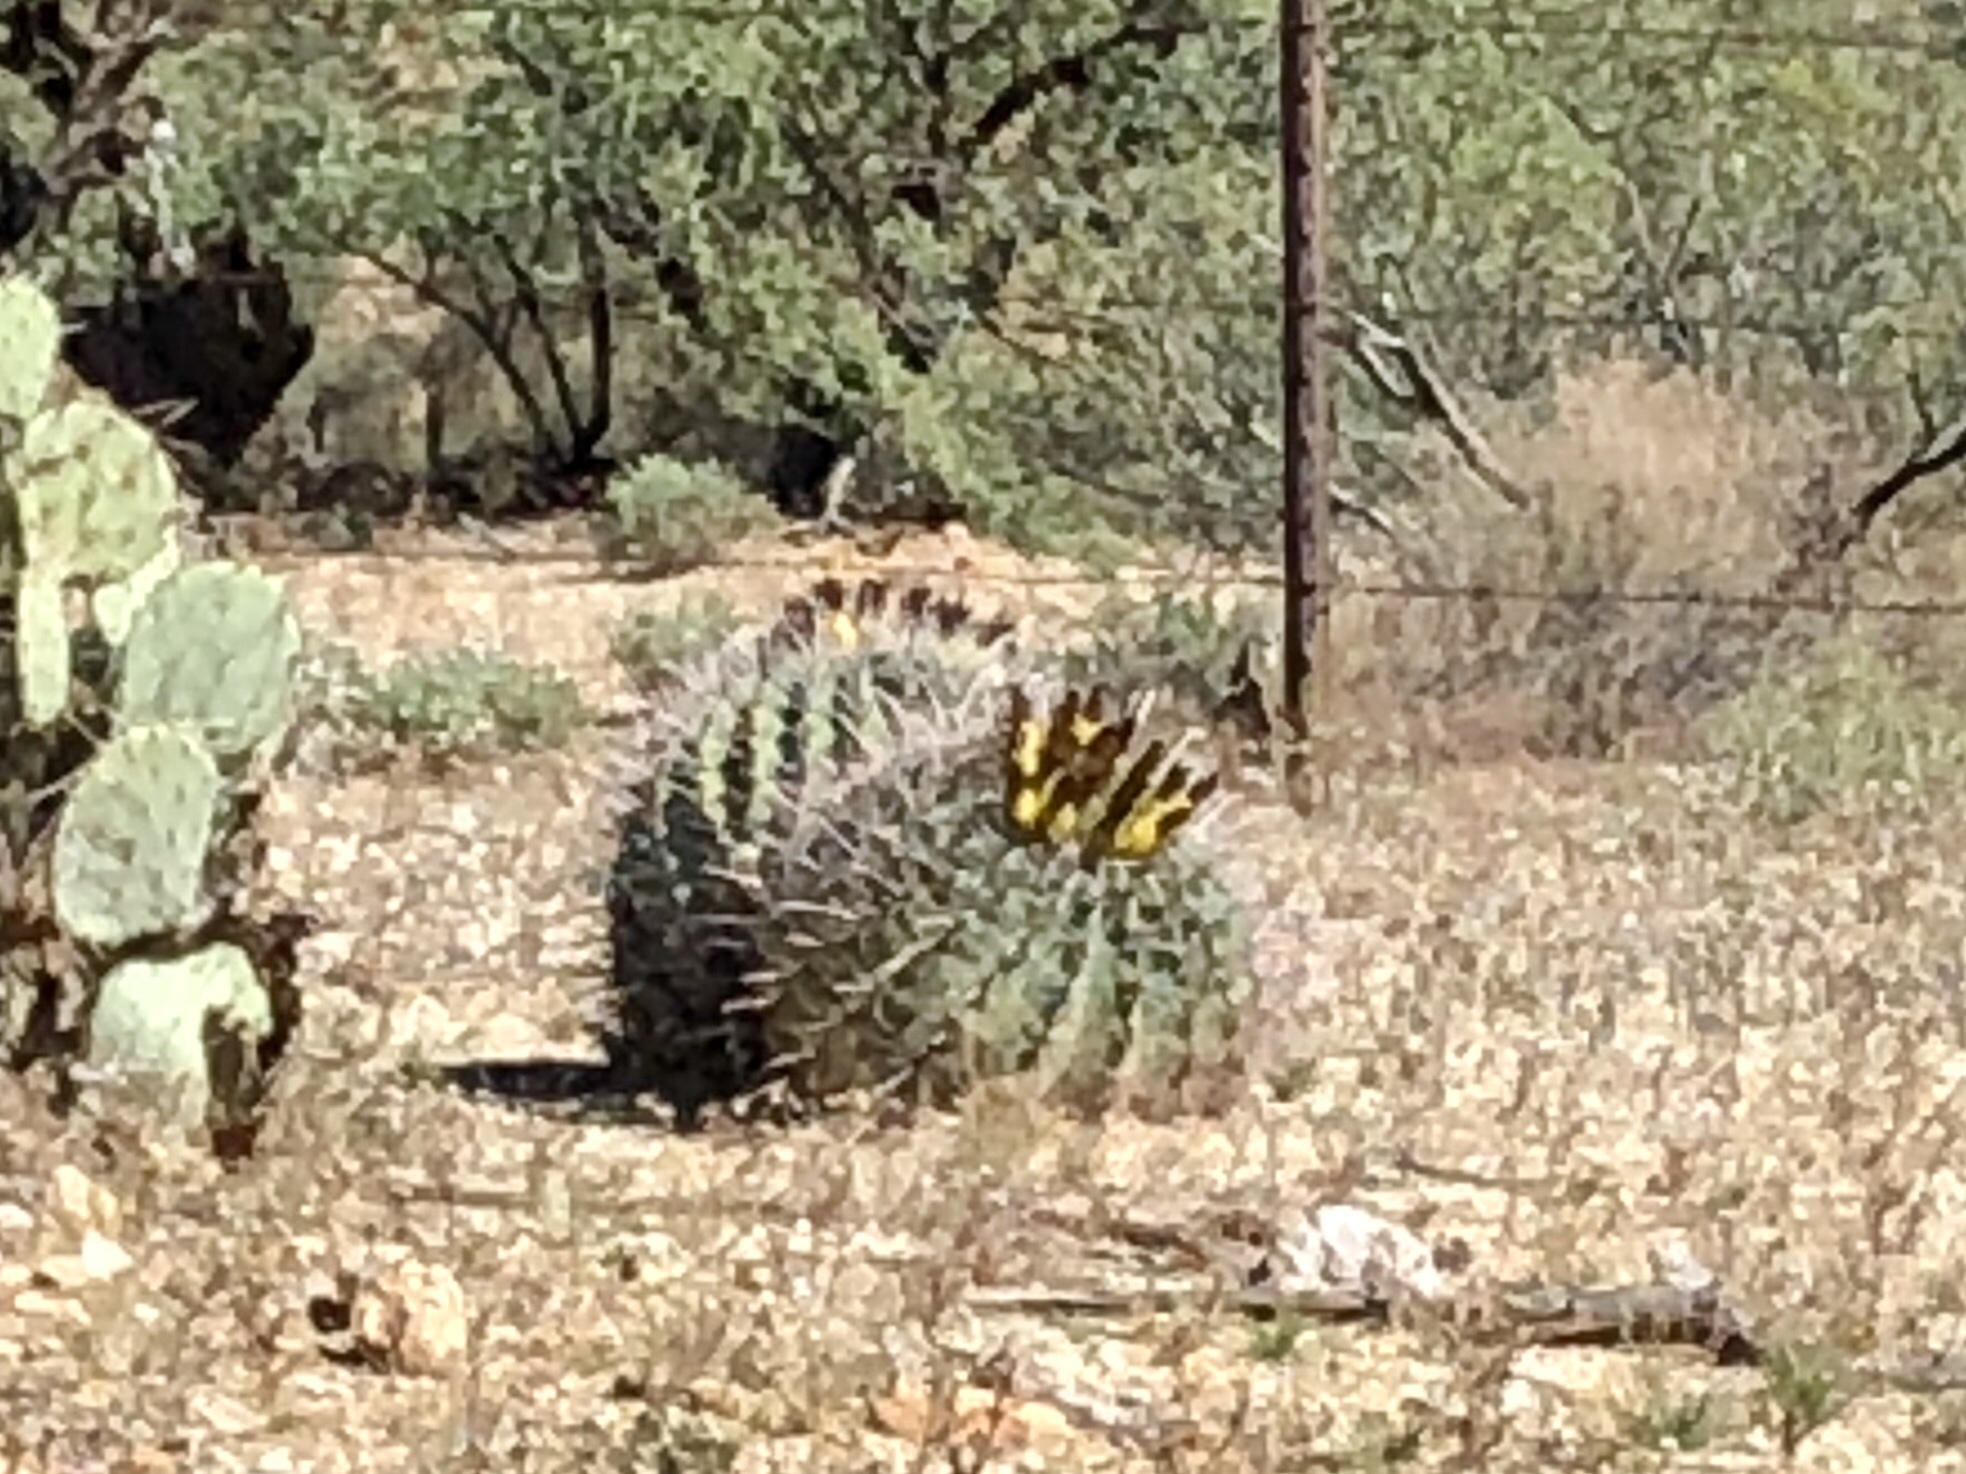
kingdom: Plantae
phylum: Tracheophyta
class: Magnoliopsida
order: Caryophyllales
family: Cactaceae
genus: Ferocactus
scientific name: Ferocactus wislizeni
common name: Candy barrel cactus
